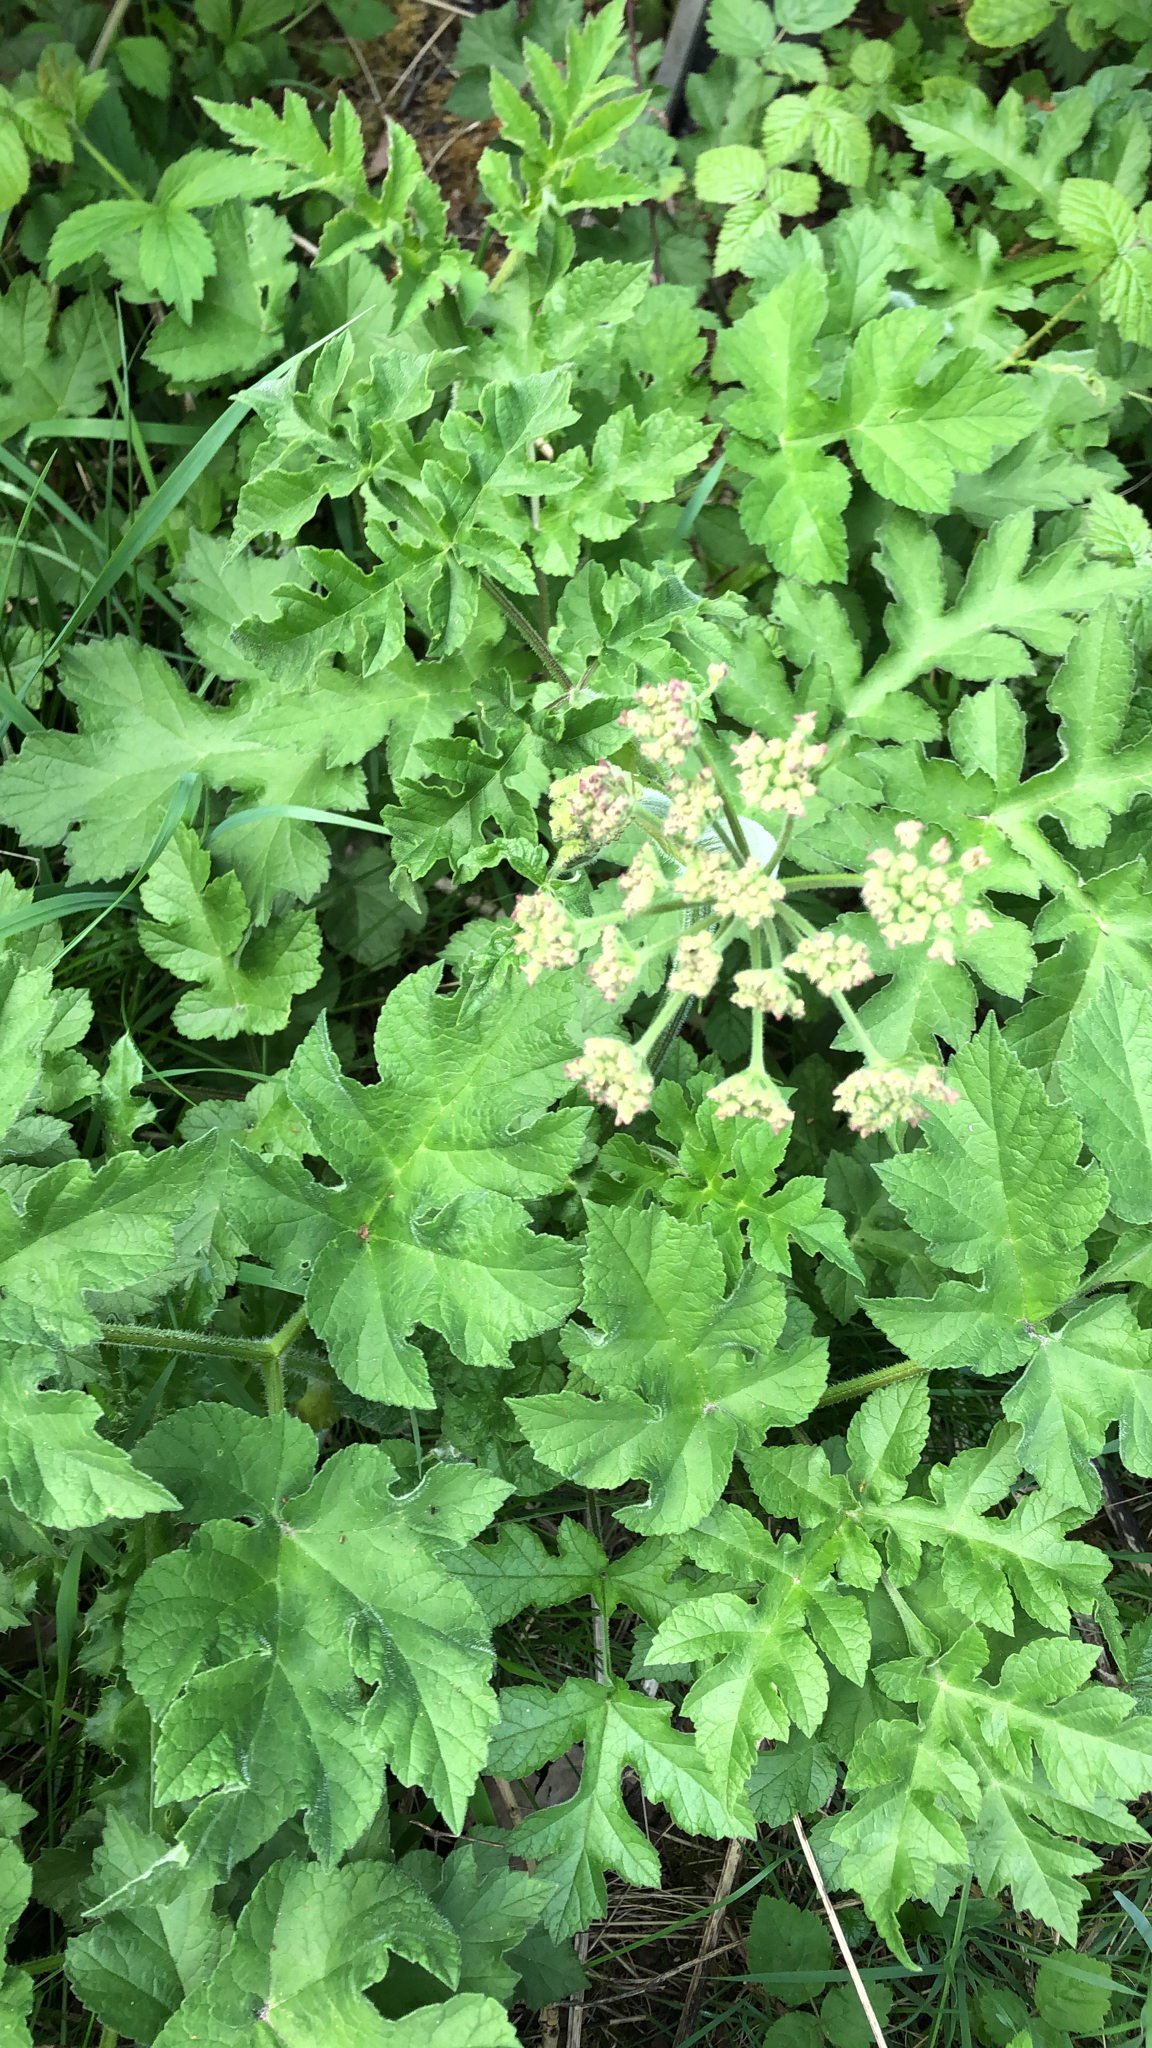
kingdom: Plantae
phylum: Tracheophyta
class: Magnoliopsida
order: Apiales
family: Apiaceae
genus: Heracleum
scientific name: Heracleum sphondylium
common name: Hogweed
